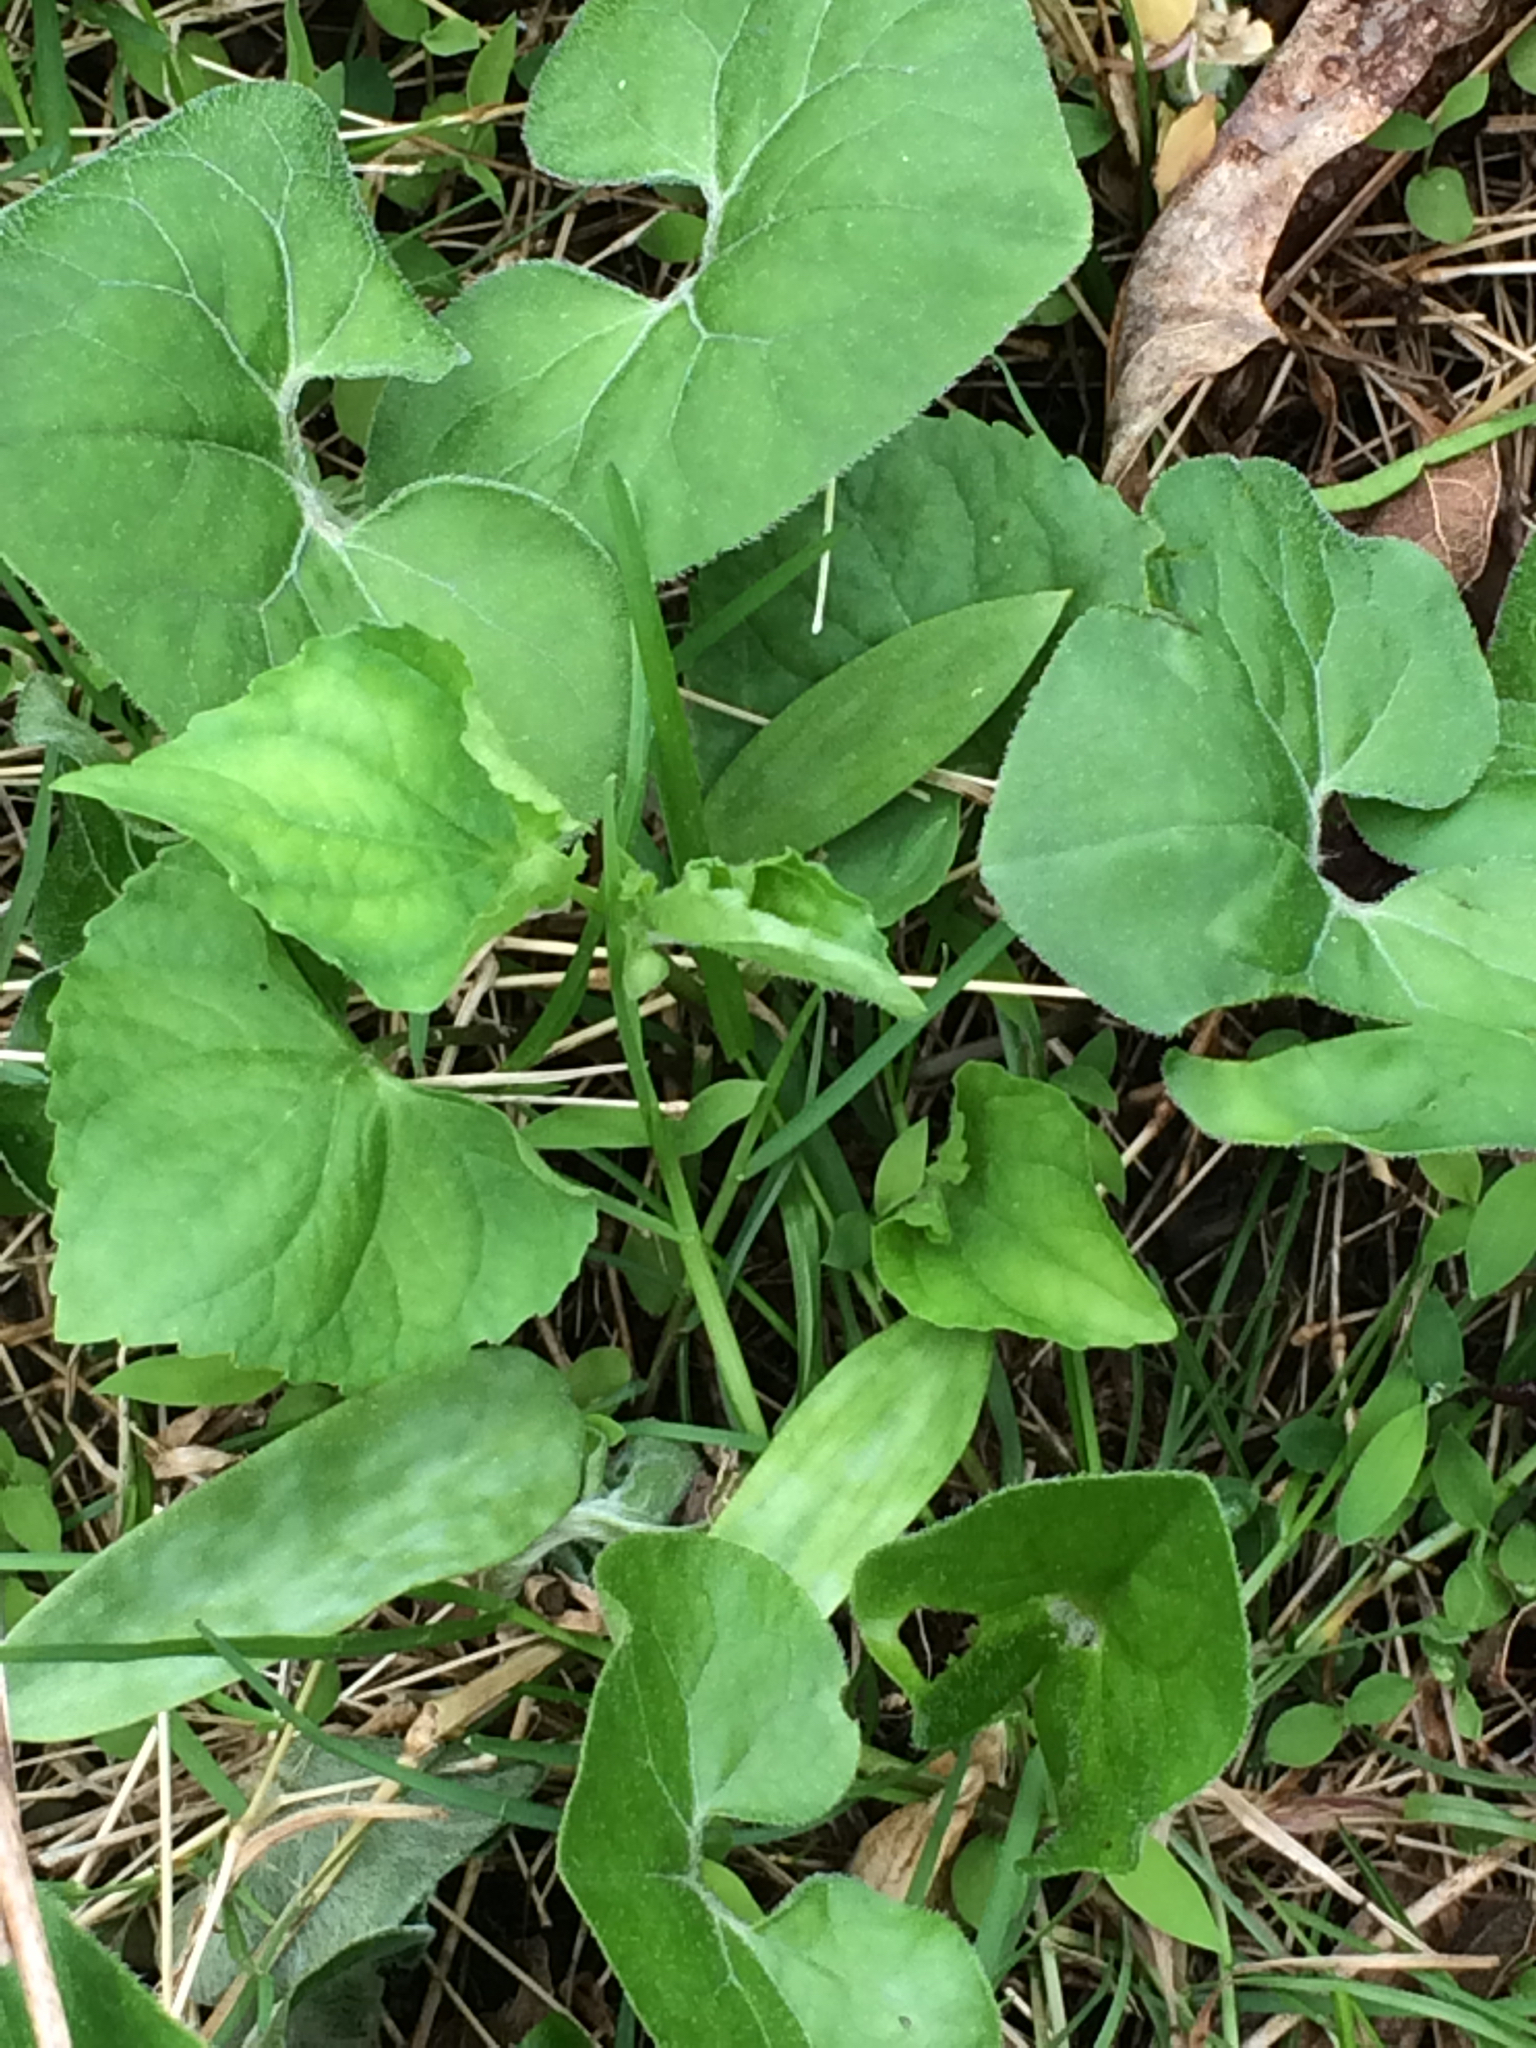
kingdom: Plantae
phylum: Tracheophyta
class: Magnoliopsida
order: Piperales
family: Aristolochiaceae
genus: Asarum
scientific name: Asarum canadense
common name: Wild ginger
